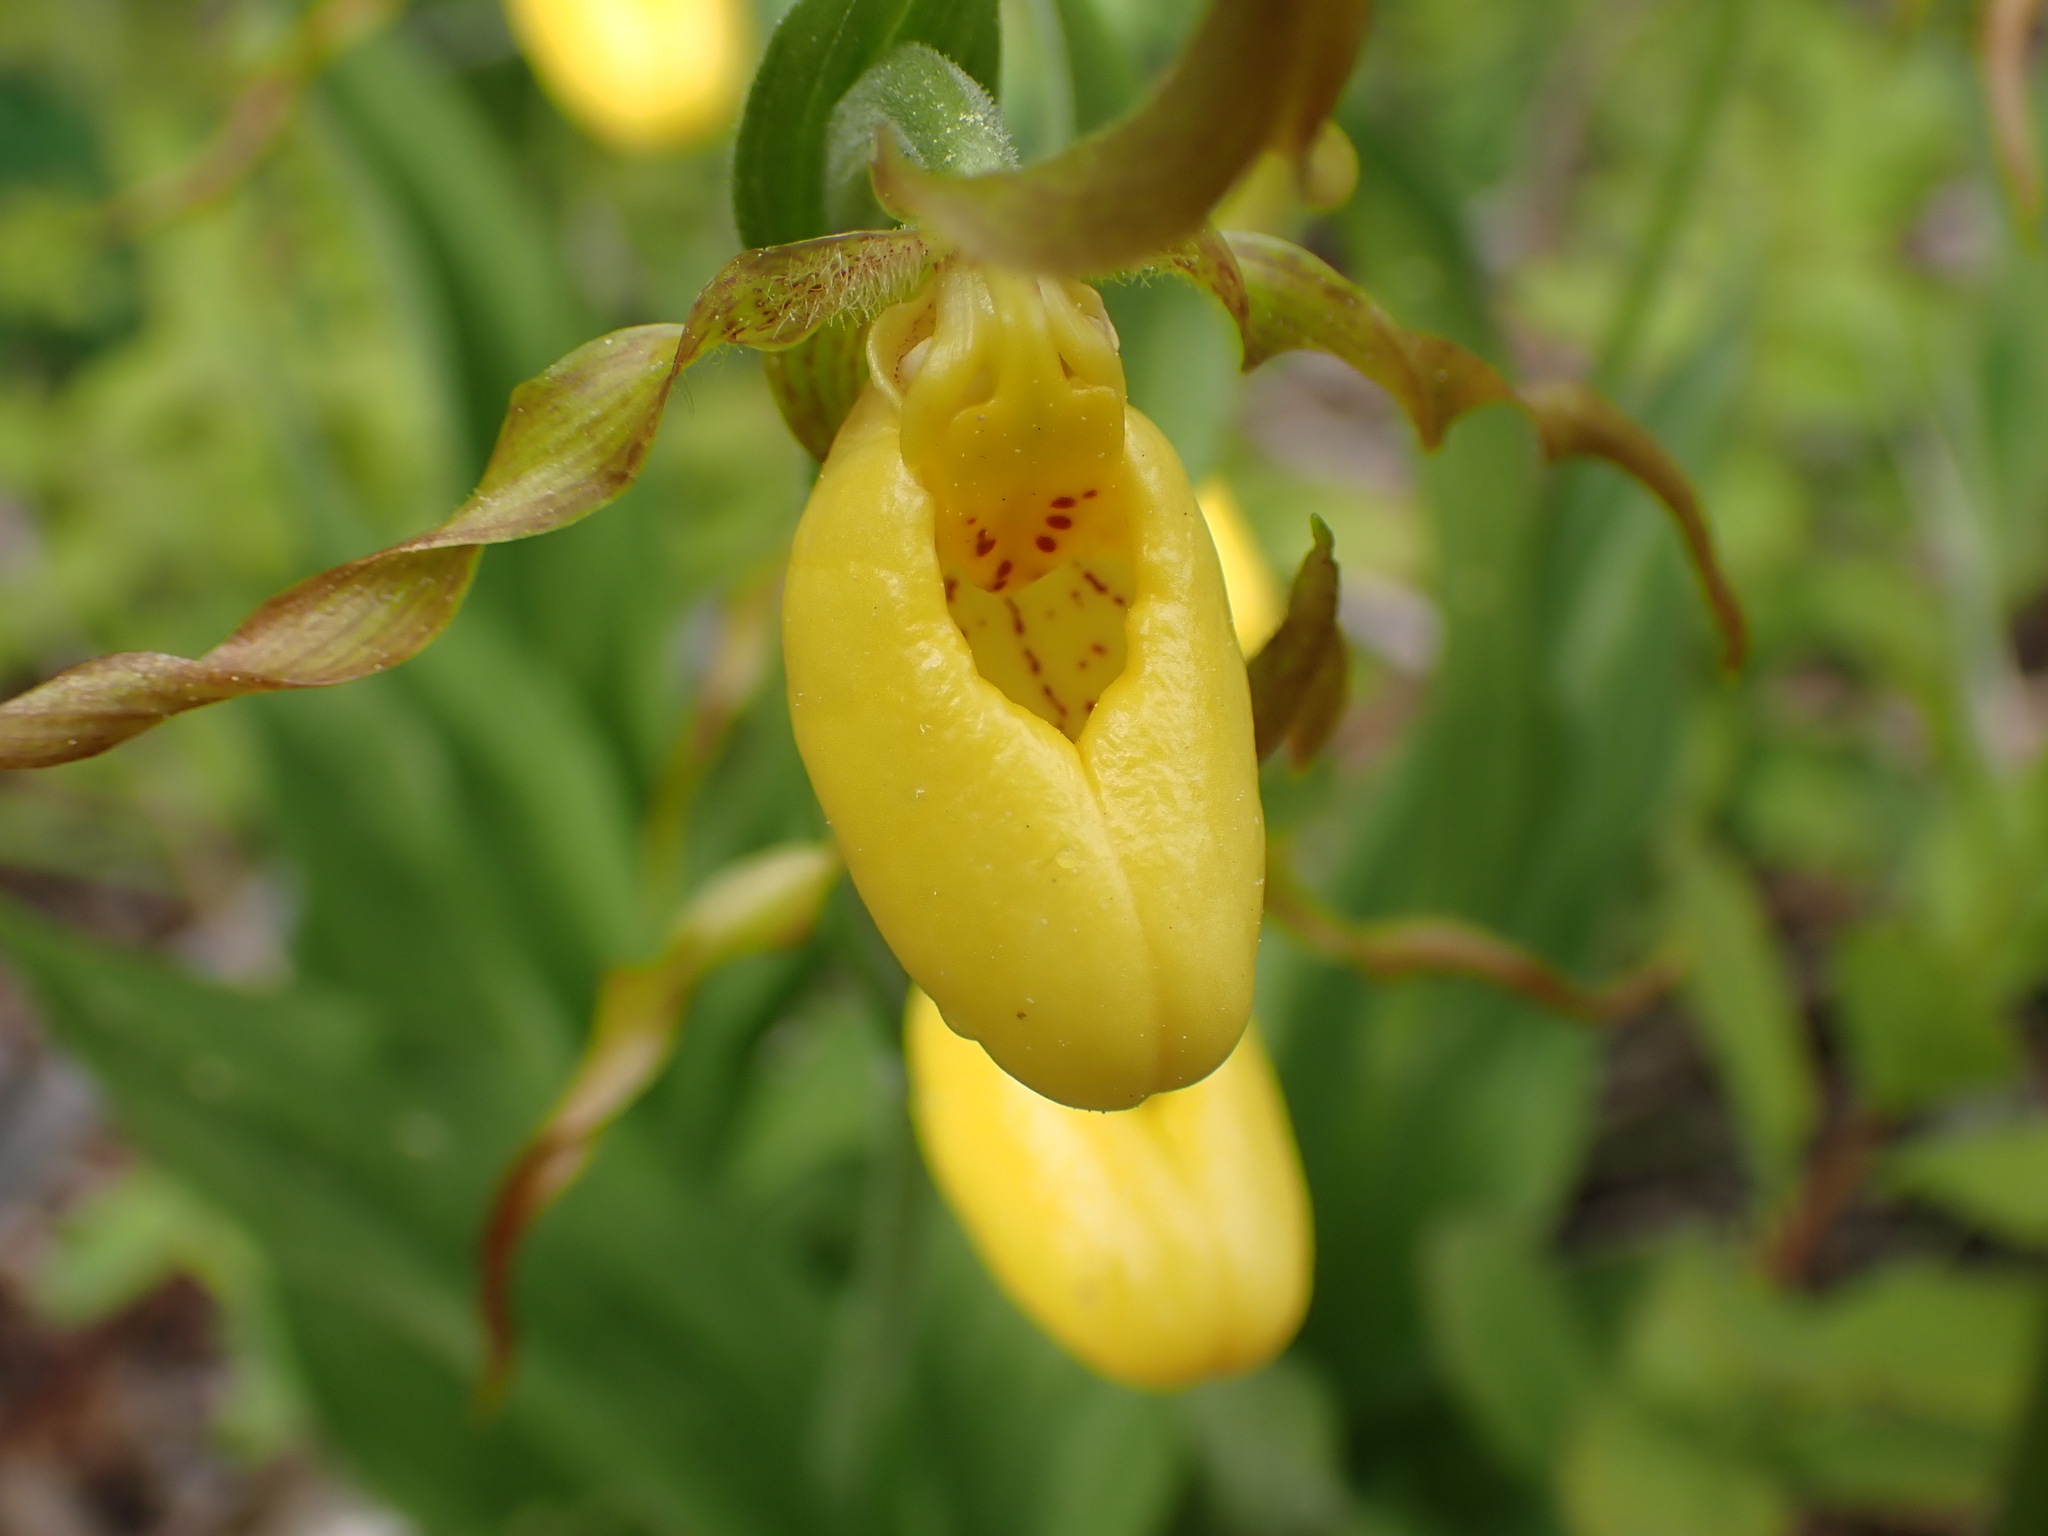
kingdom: Plantae
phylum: Tracheophyta
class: Liliopsida
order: Asparagales
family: Orchidaceae
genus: Cypripedium
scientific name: Cypripedium parviflorum
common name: American yellow lady's-slipper
